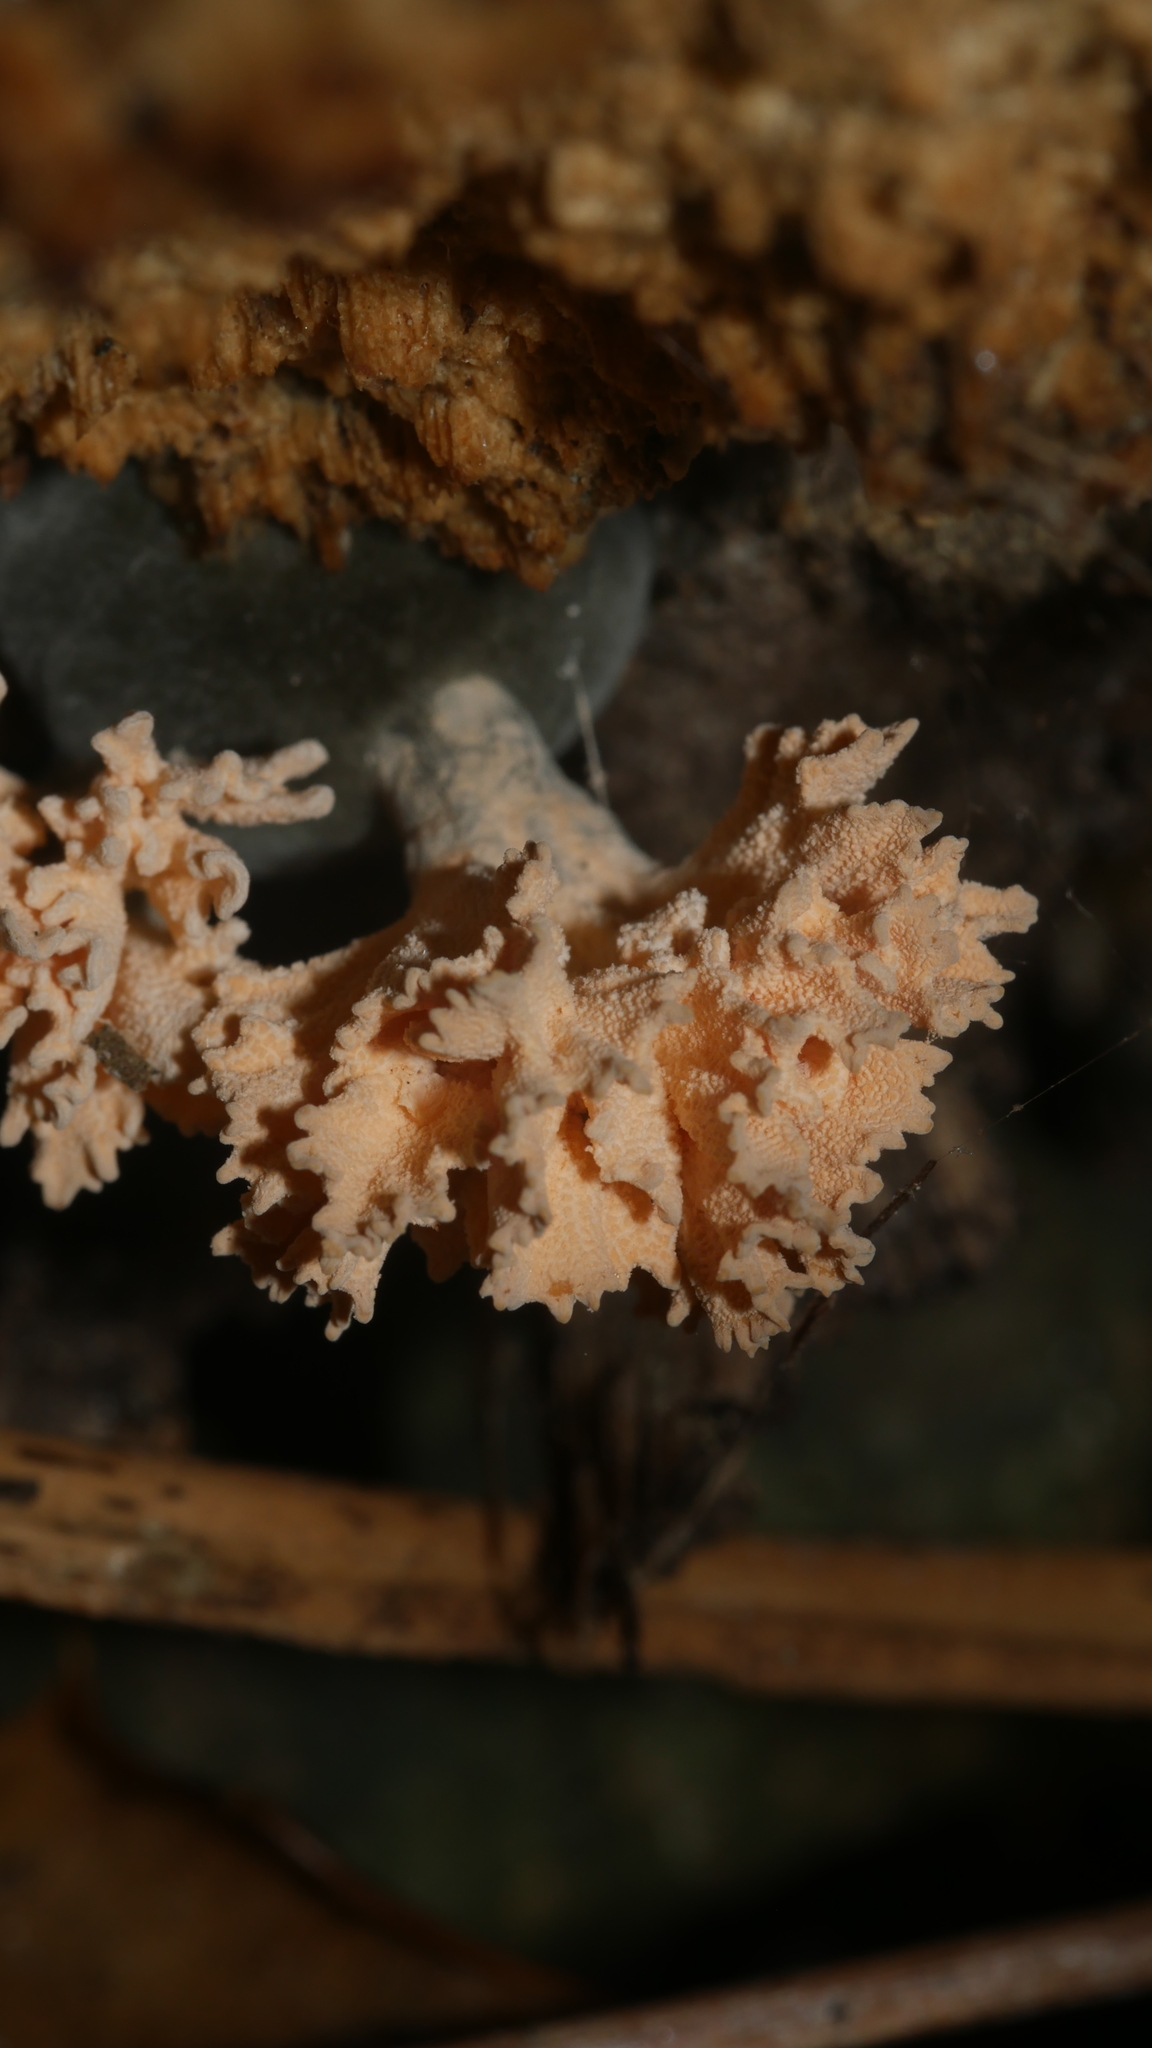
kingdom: Fungi
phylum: Ascomycota
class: Sordariomycetes
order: Xylariales
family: Xylariaceae
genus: Xylaria
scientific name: Xylaria cubensis
